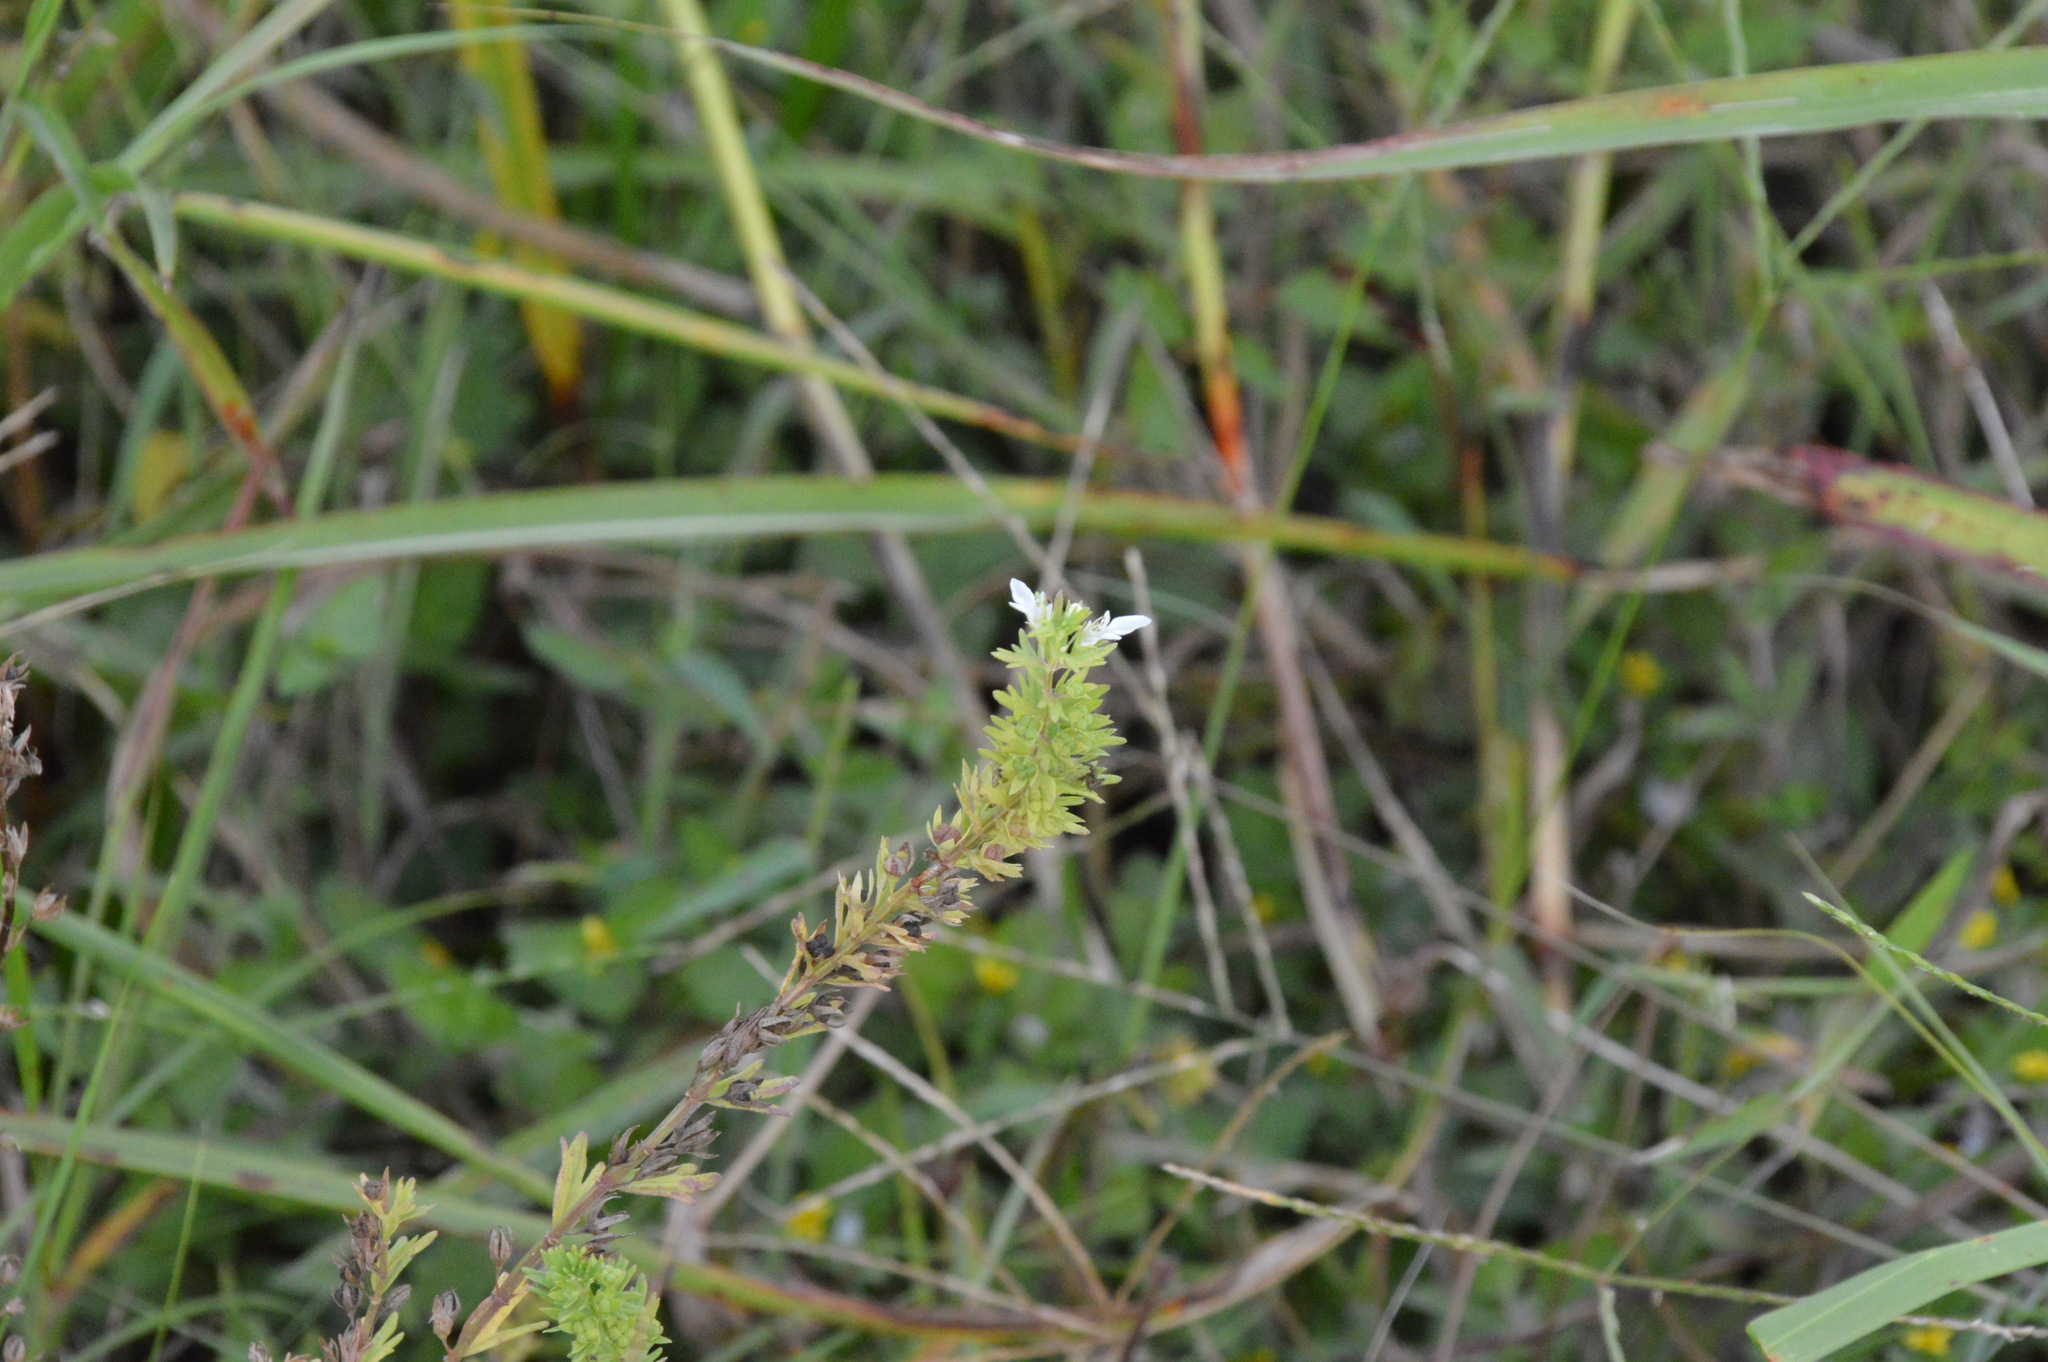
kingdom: Plantae
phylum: Tracheophyta
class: Magnoliopsida
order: Lamiales
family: Lamiaceae
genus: Teucrium
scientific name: Teucrium cubense
